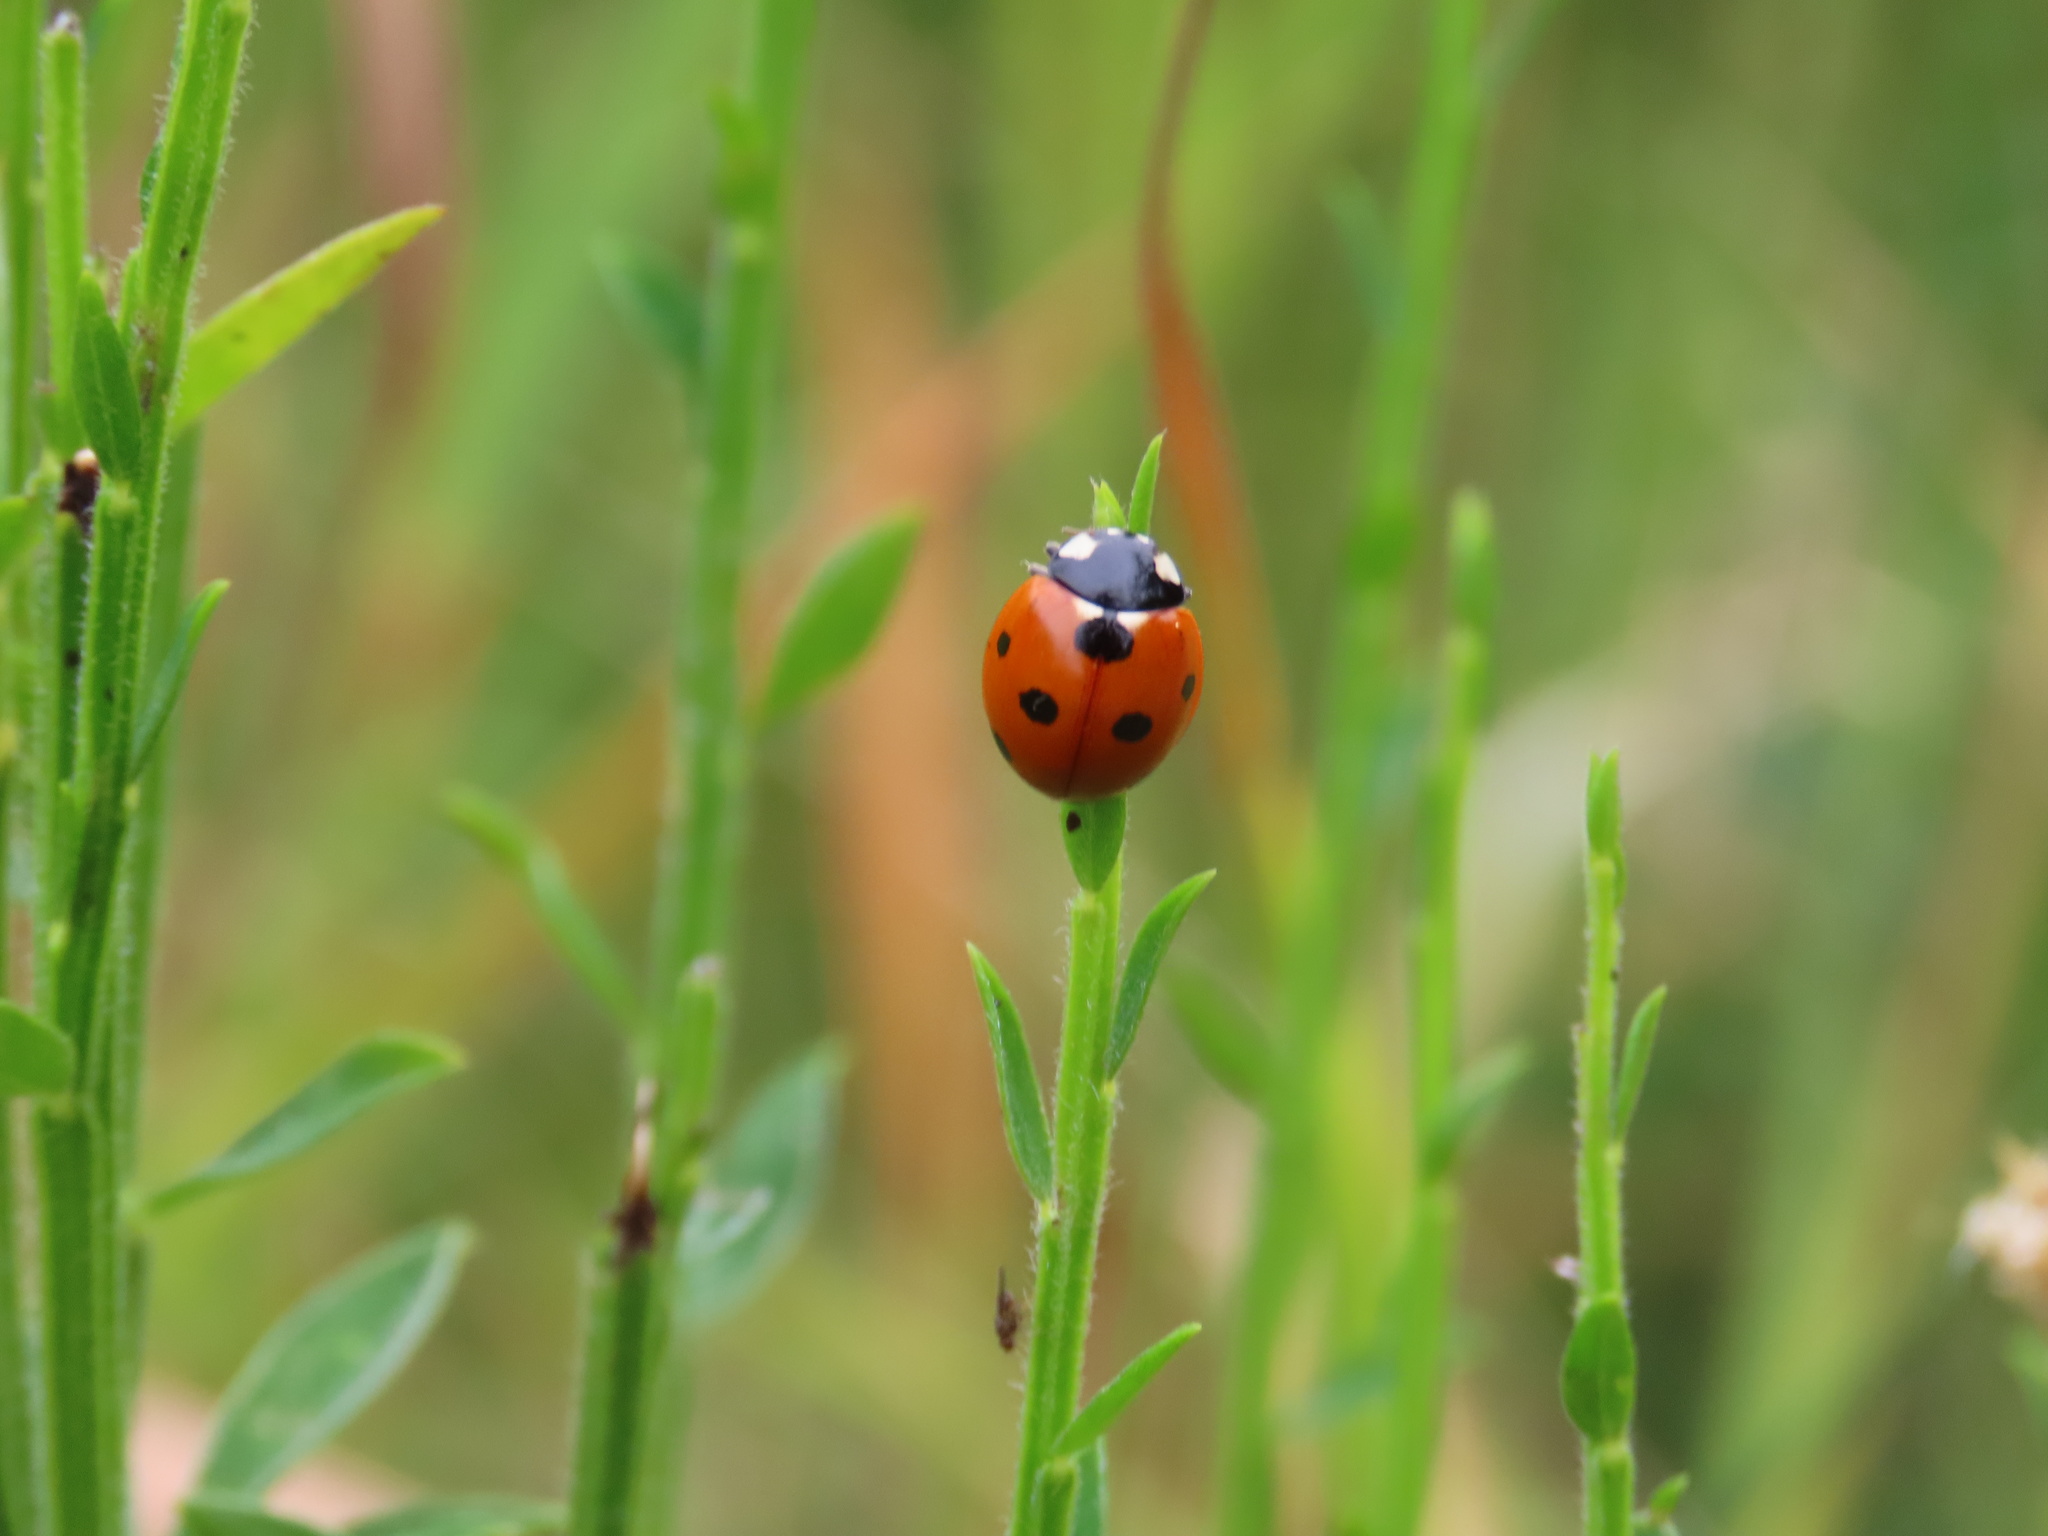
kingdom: Animalia
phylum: Arthropoda
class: Insecta
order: Coleoptera
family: Coccinellidae
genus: Coccinella
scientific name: Coccinella septempunctata
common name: Sevenspotted lady beetle
